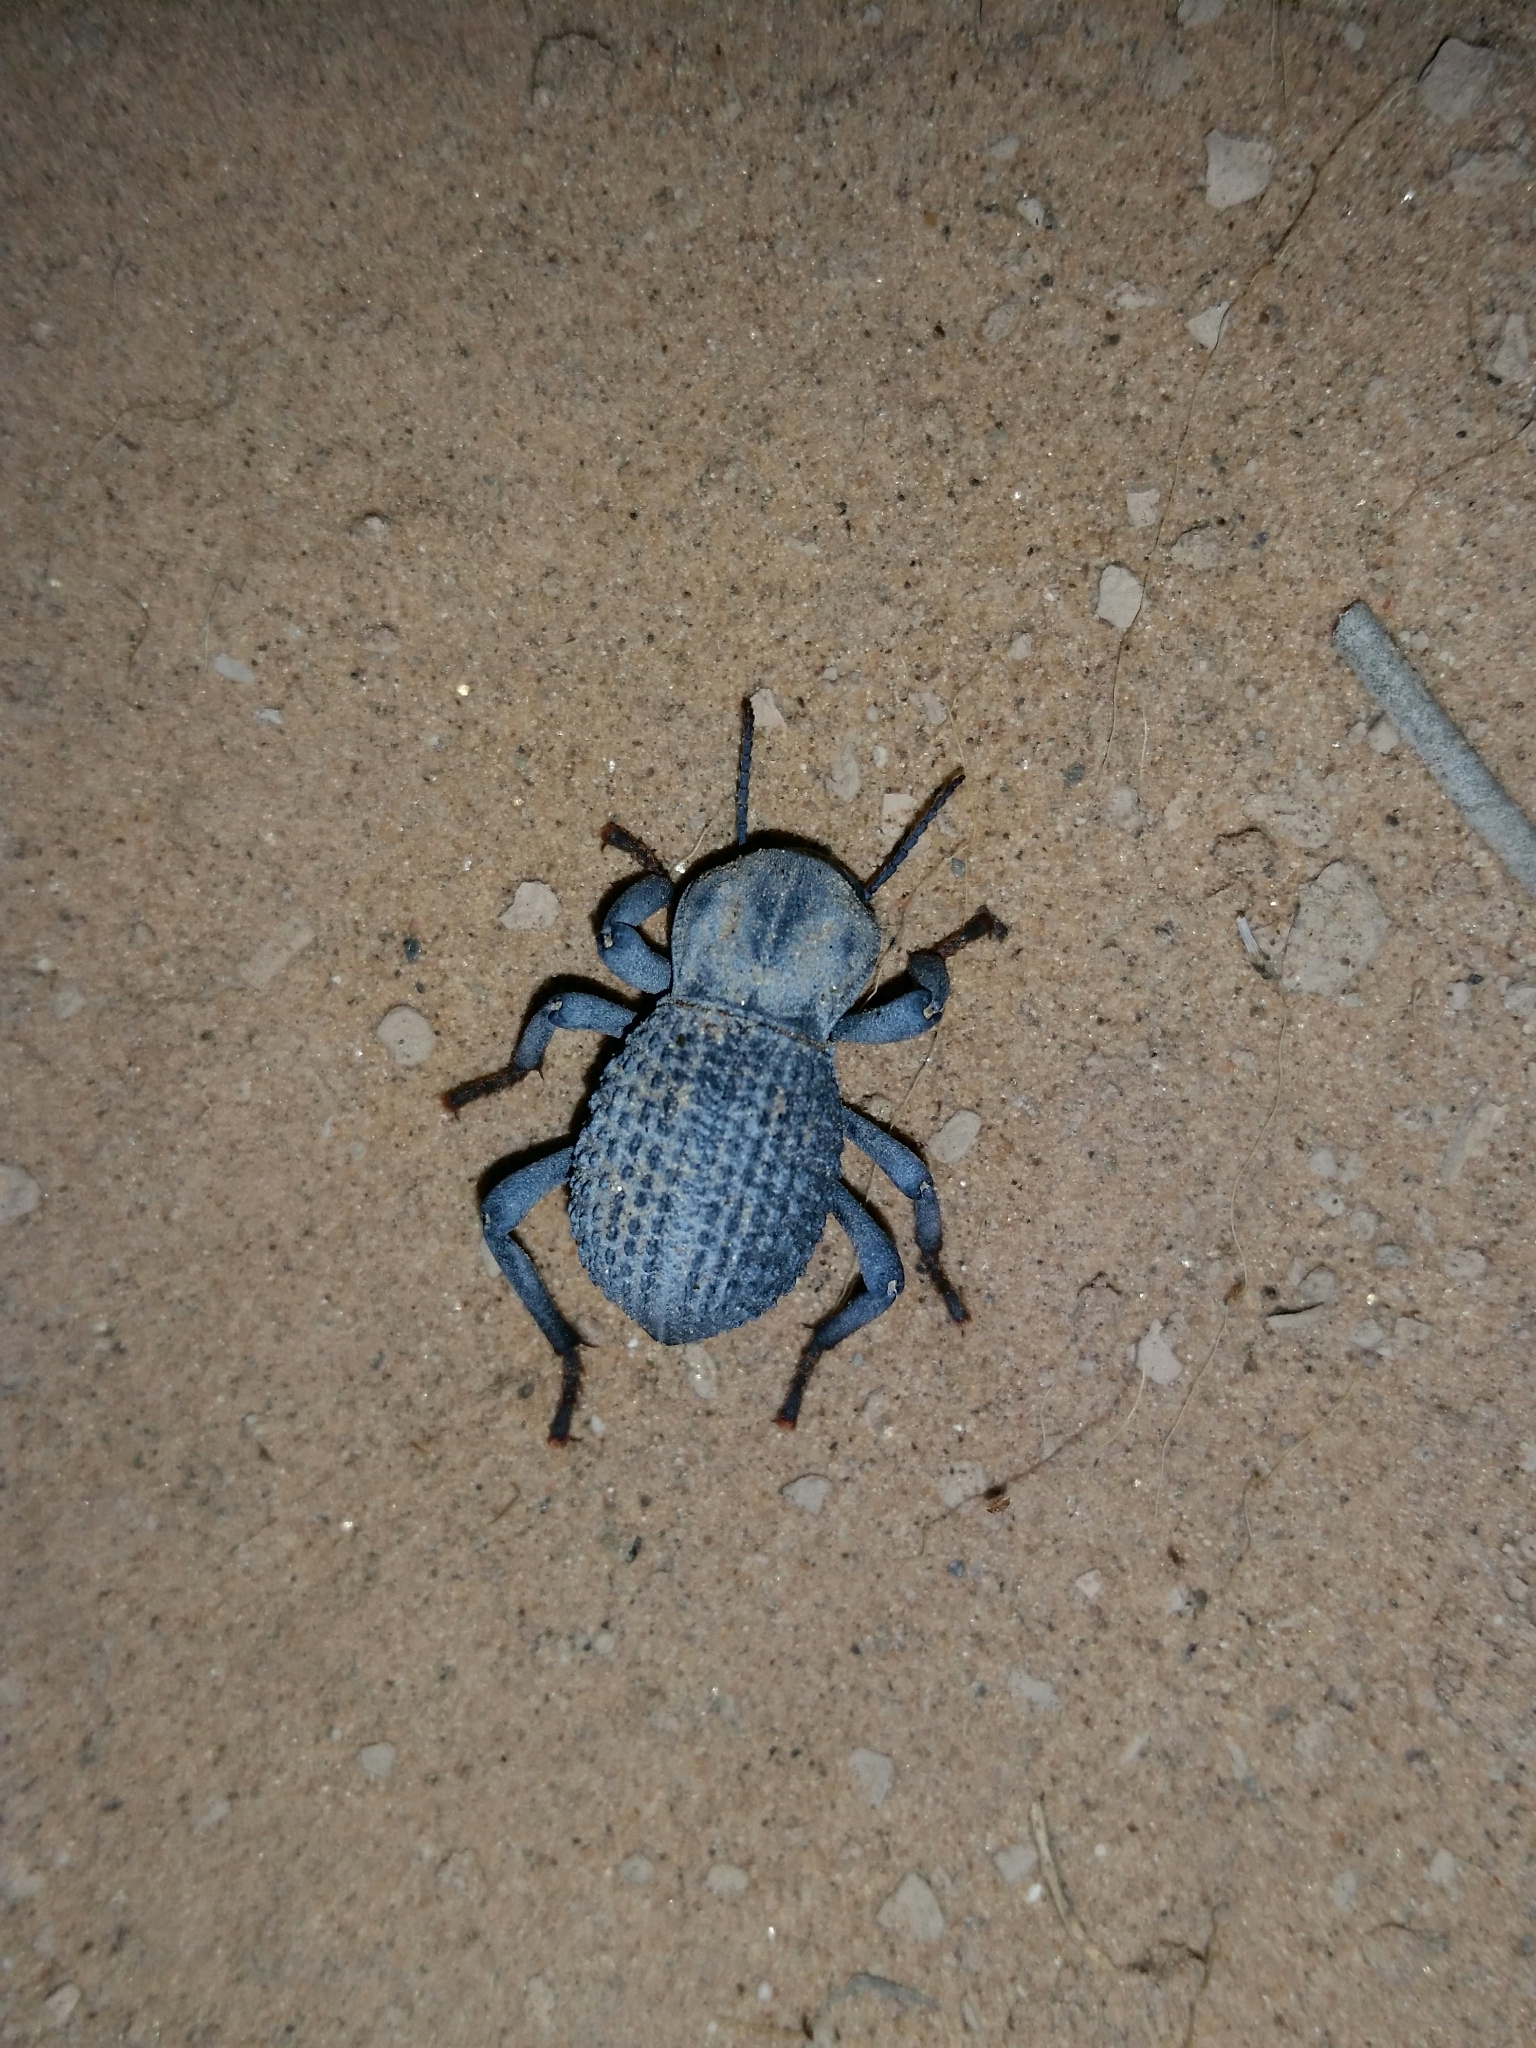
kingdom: Animalia
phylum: Arthropoda
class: Insecta
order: Coleoptera
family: Tenebrionidae
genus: Asbolus
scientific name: Asbolus verrucosus
